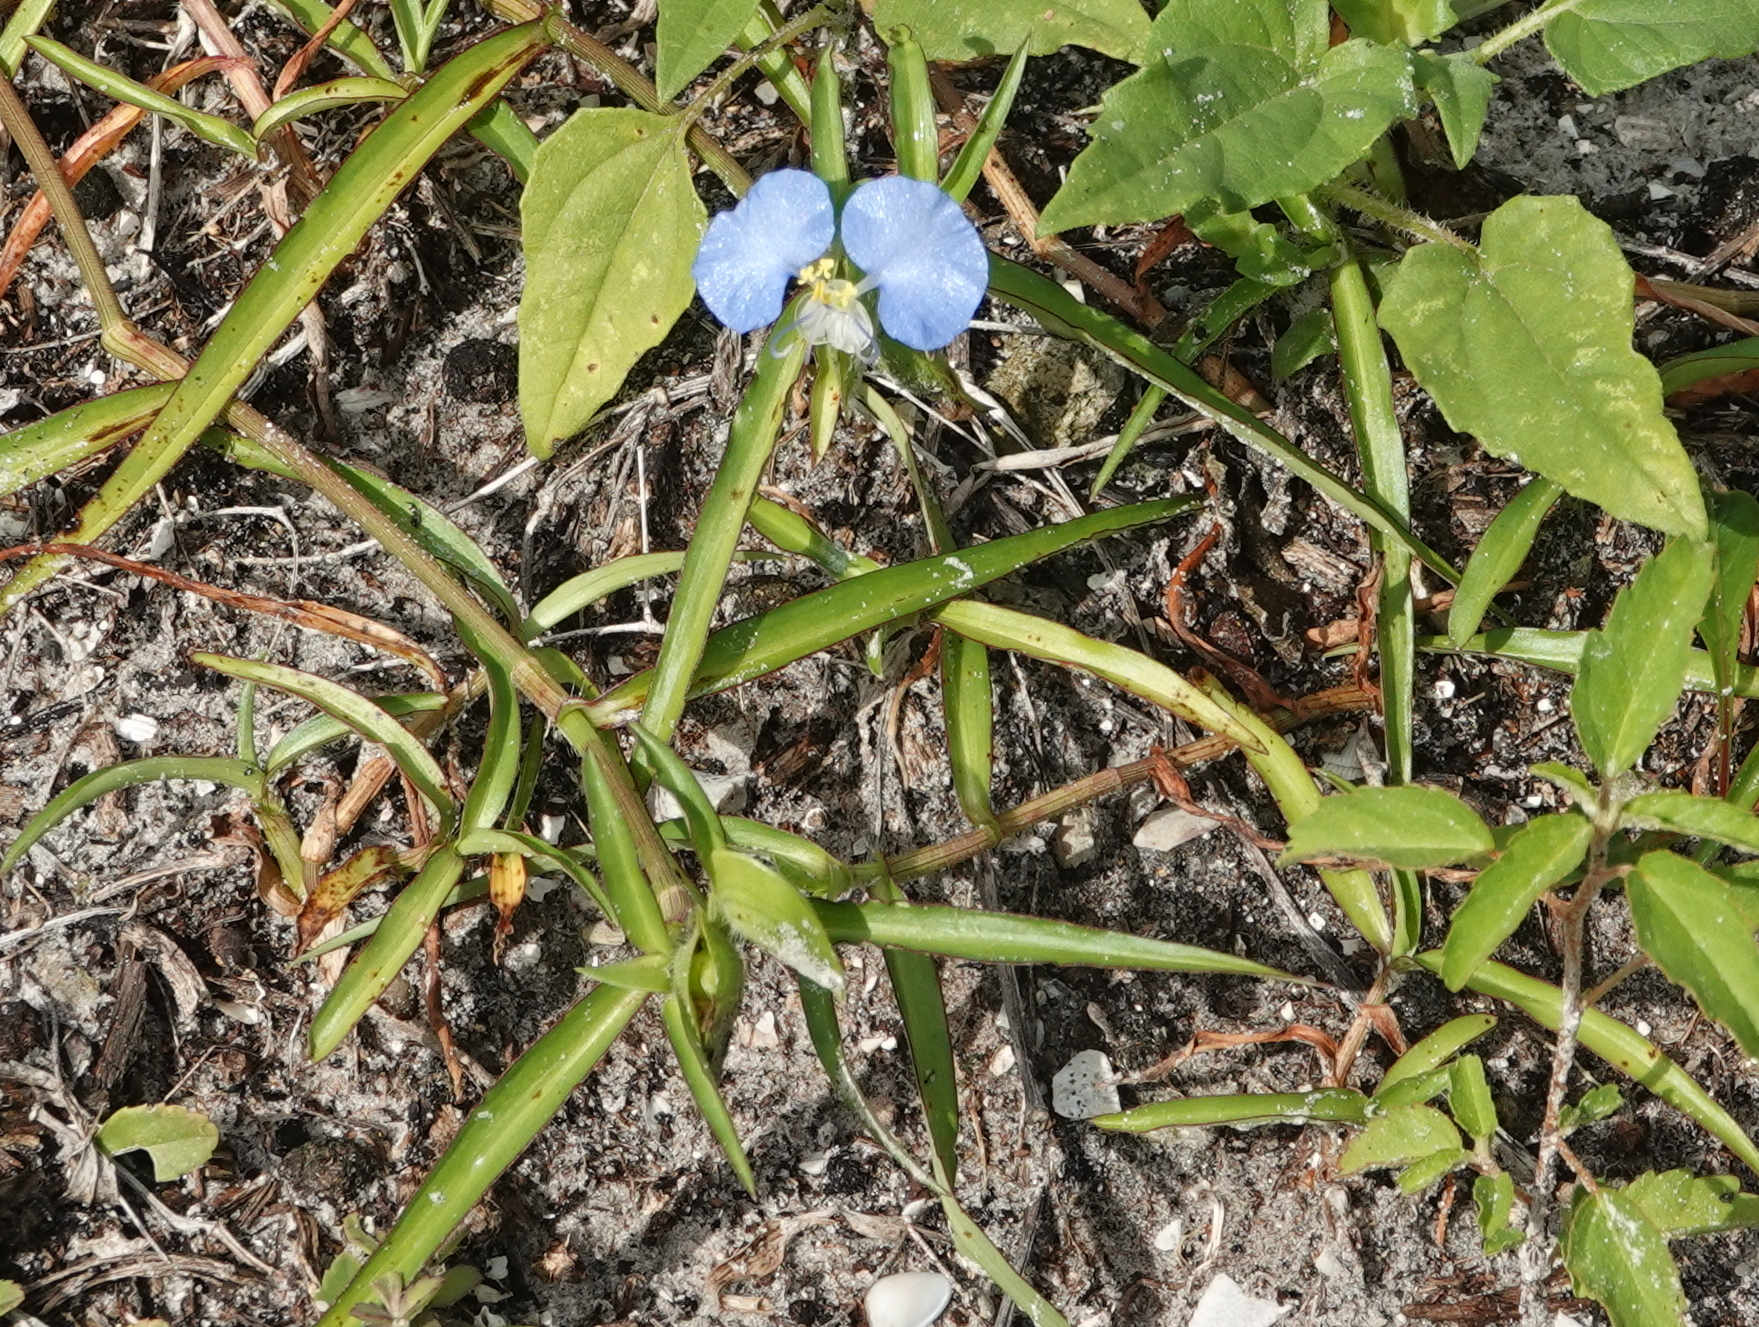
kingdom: Plantae
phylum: Tracheophyta
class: Liliopsida
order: Commelinales
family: Commelinaceae
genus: Commelina
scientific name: Commelina erecta
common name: Blousel blommetjie
